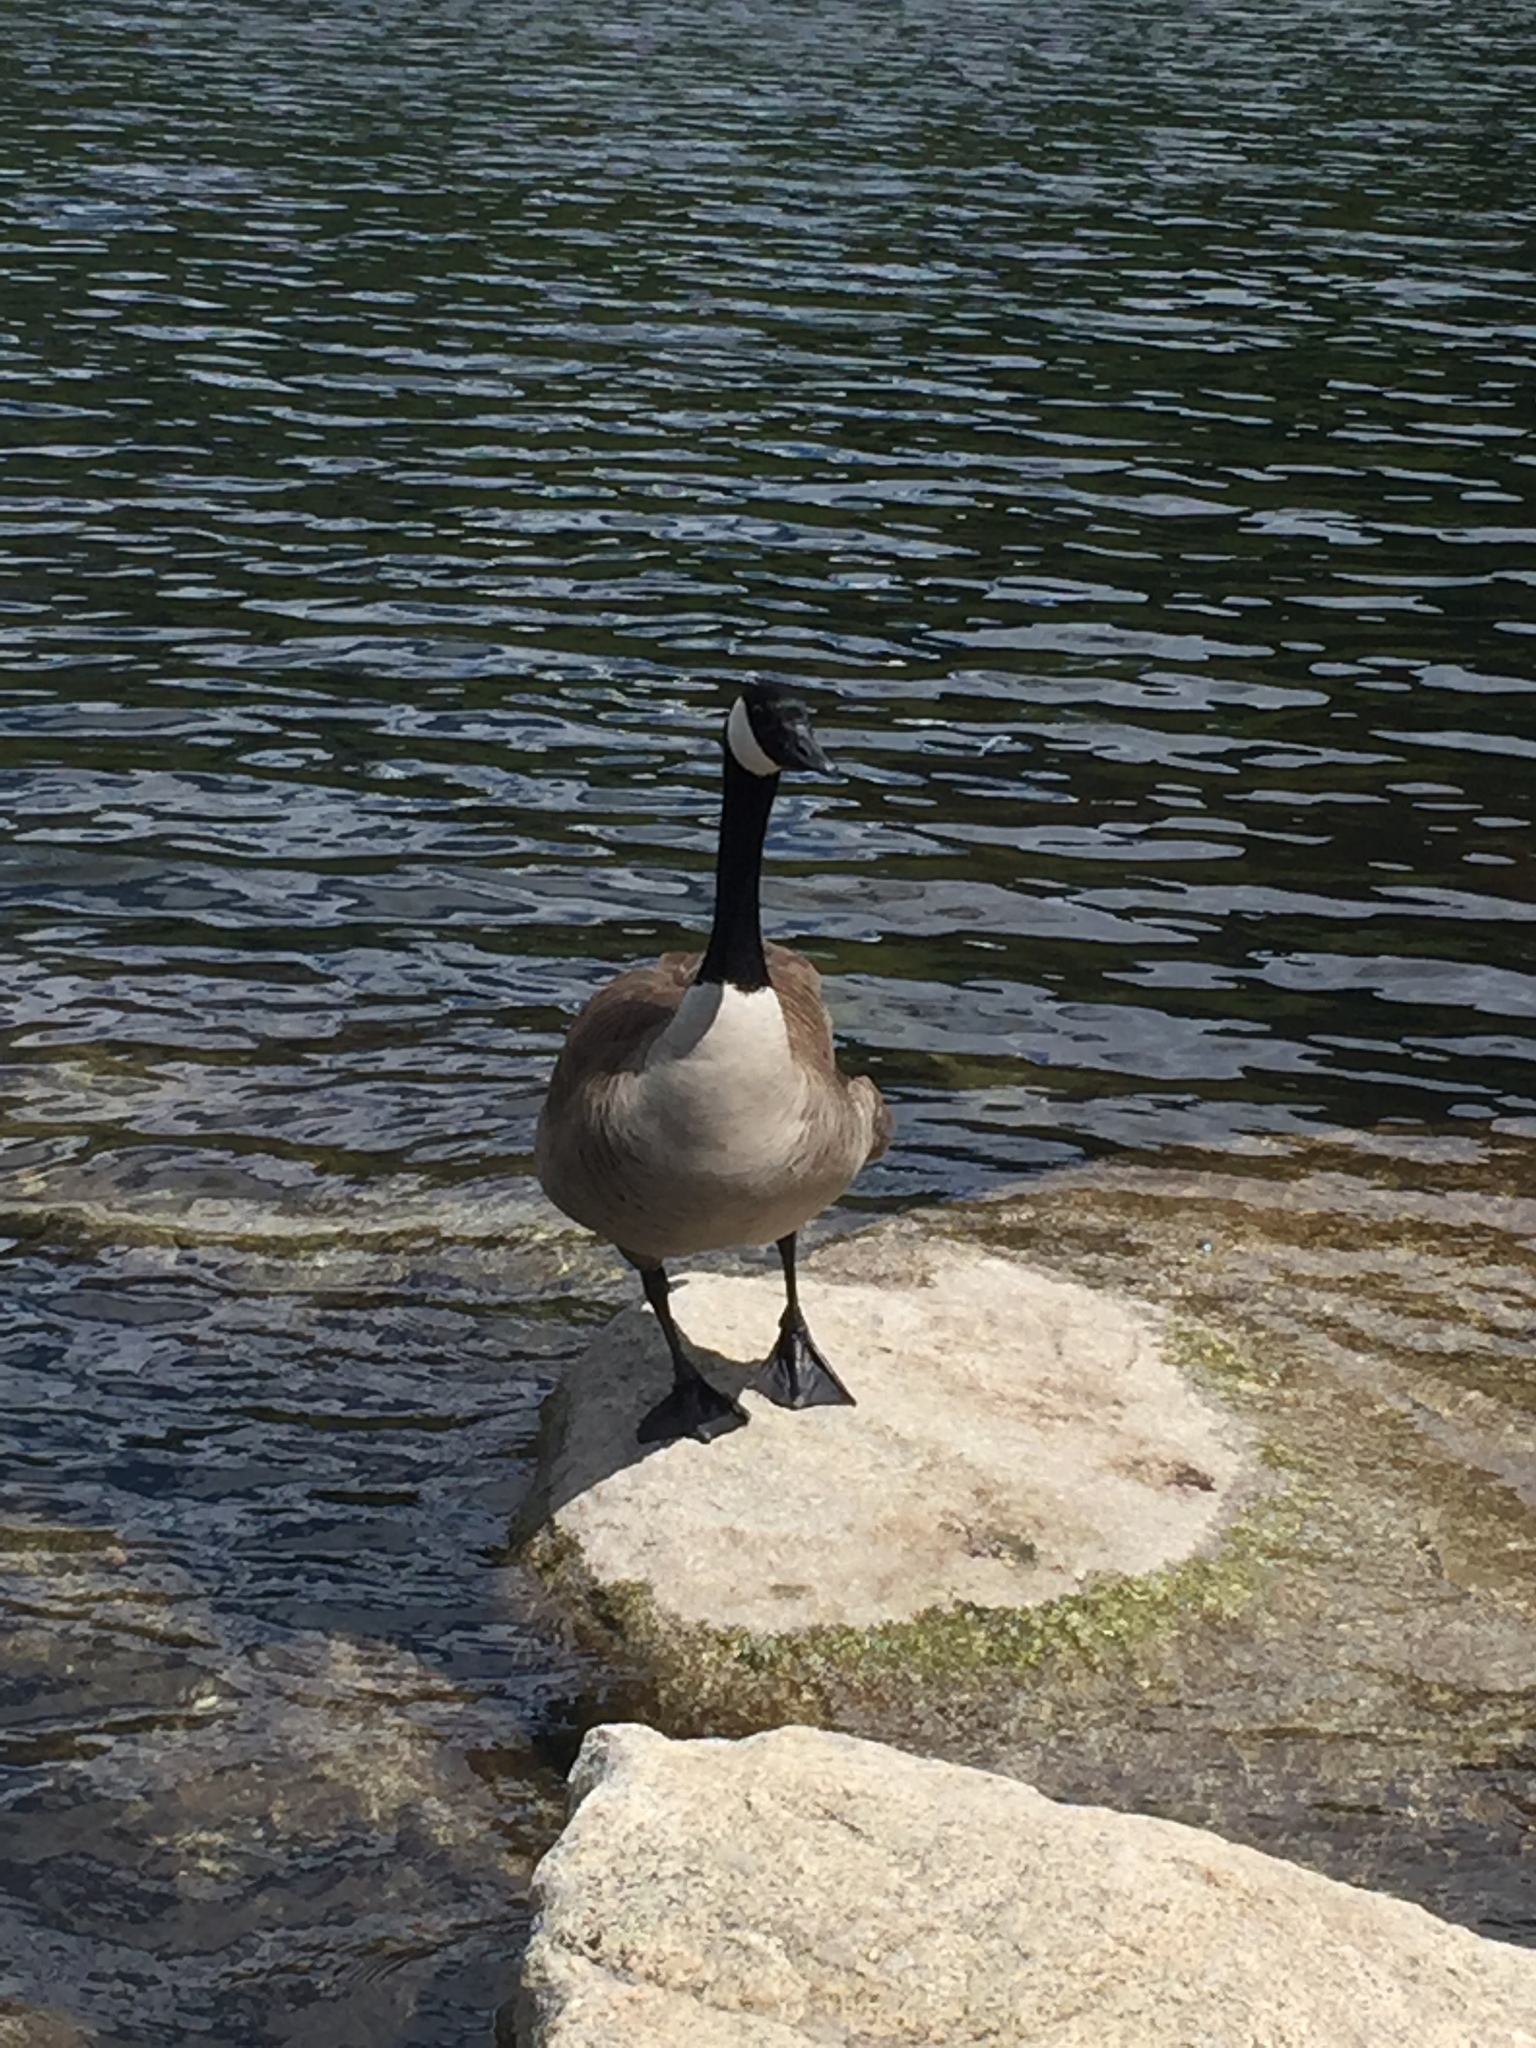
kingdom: Animalia
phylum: Chordata
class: Aves
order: Anseriformes
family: Anatidae
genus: Branta
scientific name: Branta canadensis
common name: Canada goose
